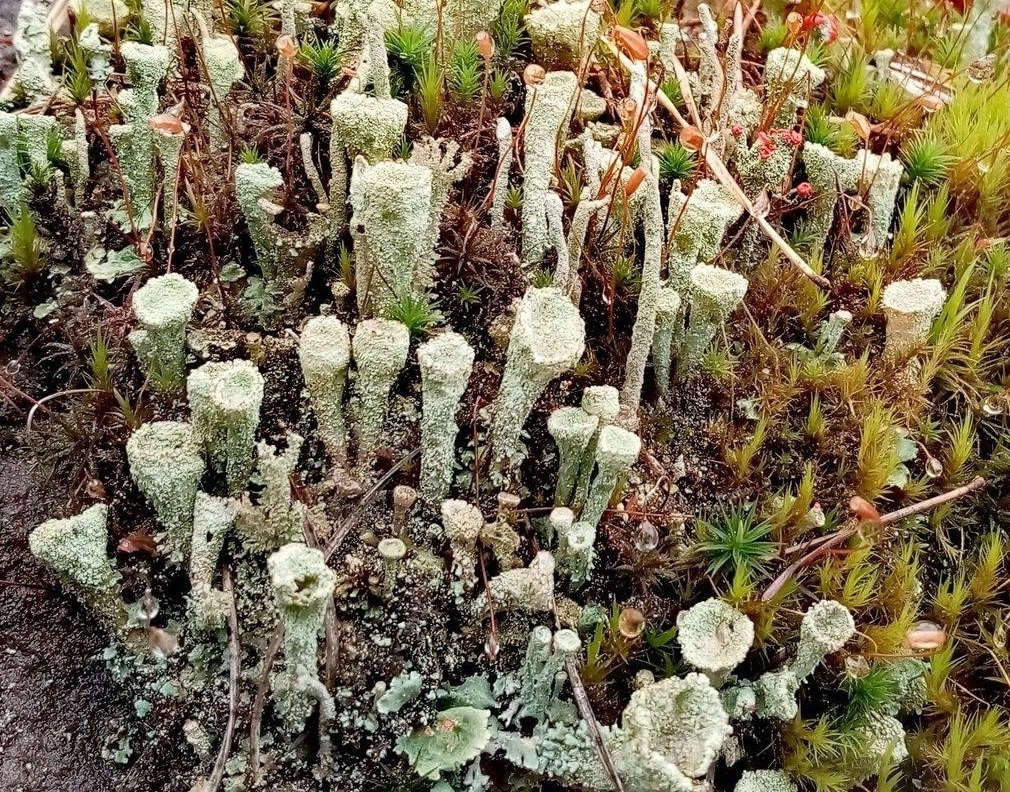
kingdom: Fungi
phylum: Ascomycota
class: Lecanoromycetes
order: Lecanorales
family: Cladoniaceae
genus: Cladonia
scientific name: Cladonia pyxidata
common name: Pebbled pixie cup
